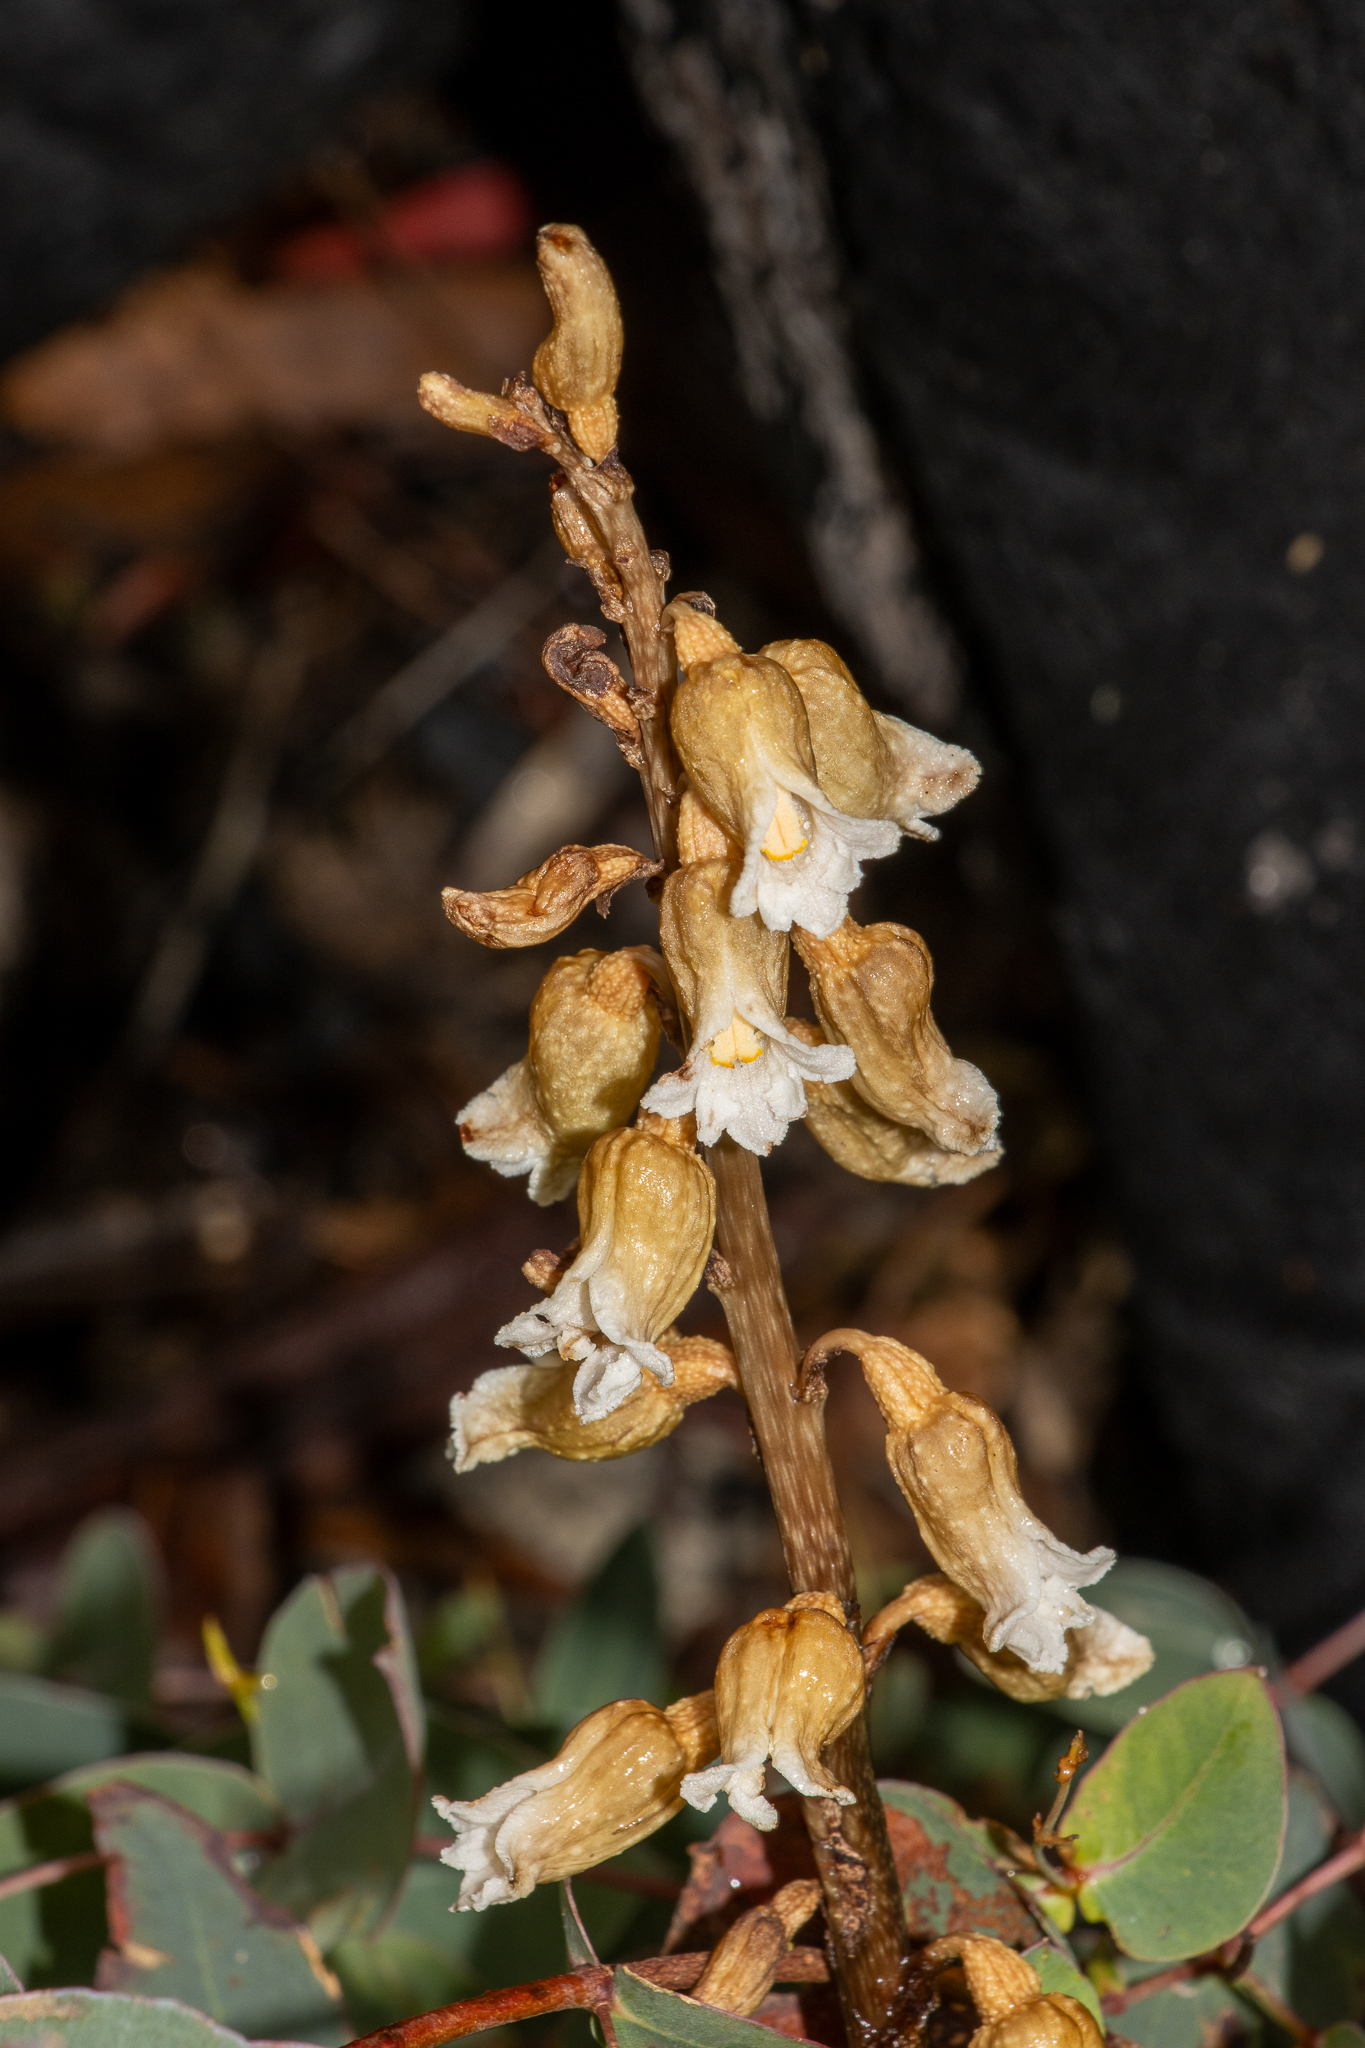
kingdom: Plantae
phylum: Tracheophyta
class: Liliopsida
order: Asparagales
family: Orchidaceae
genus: Gastrodia
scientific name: Gastrodia procera
